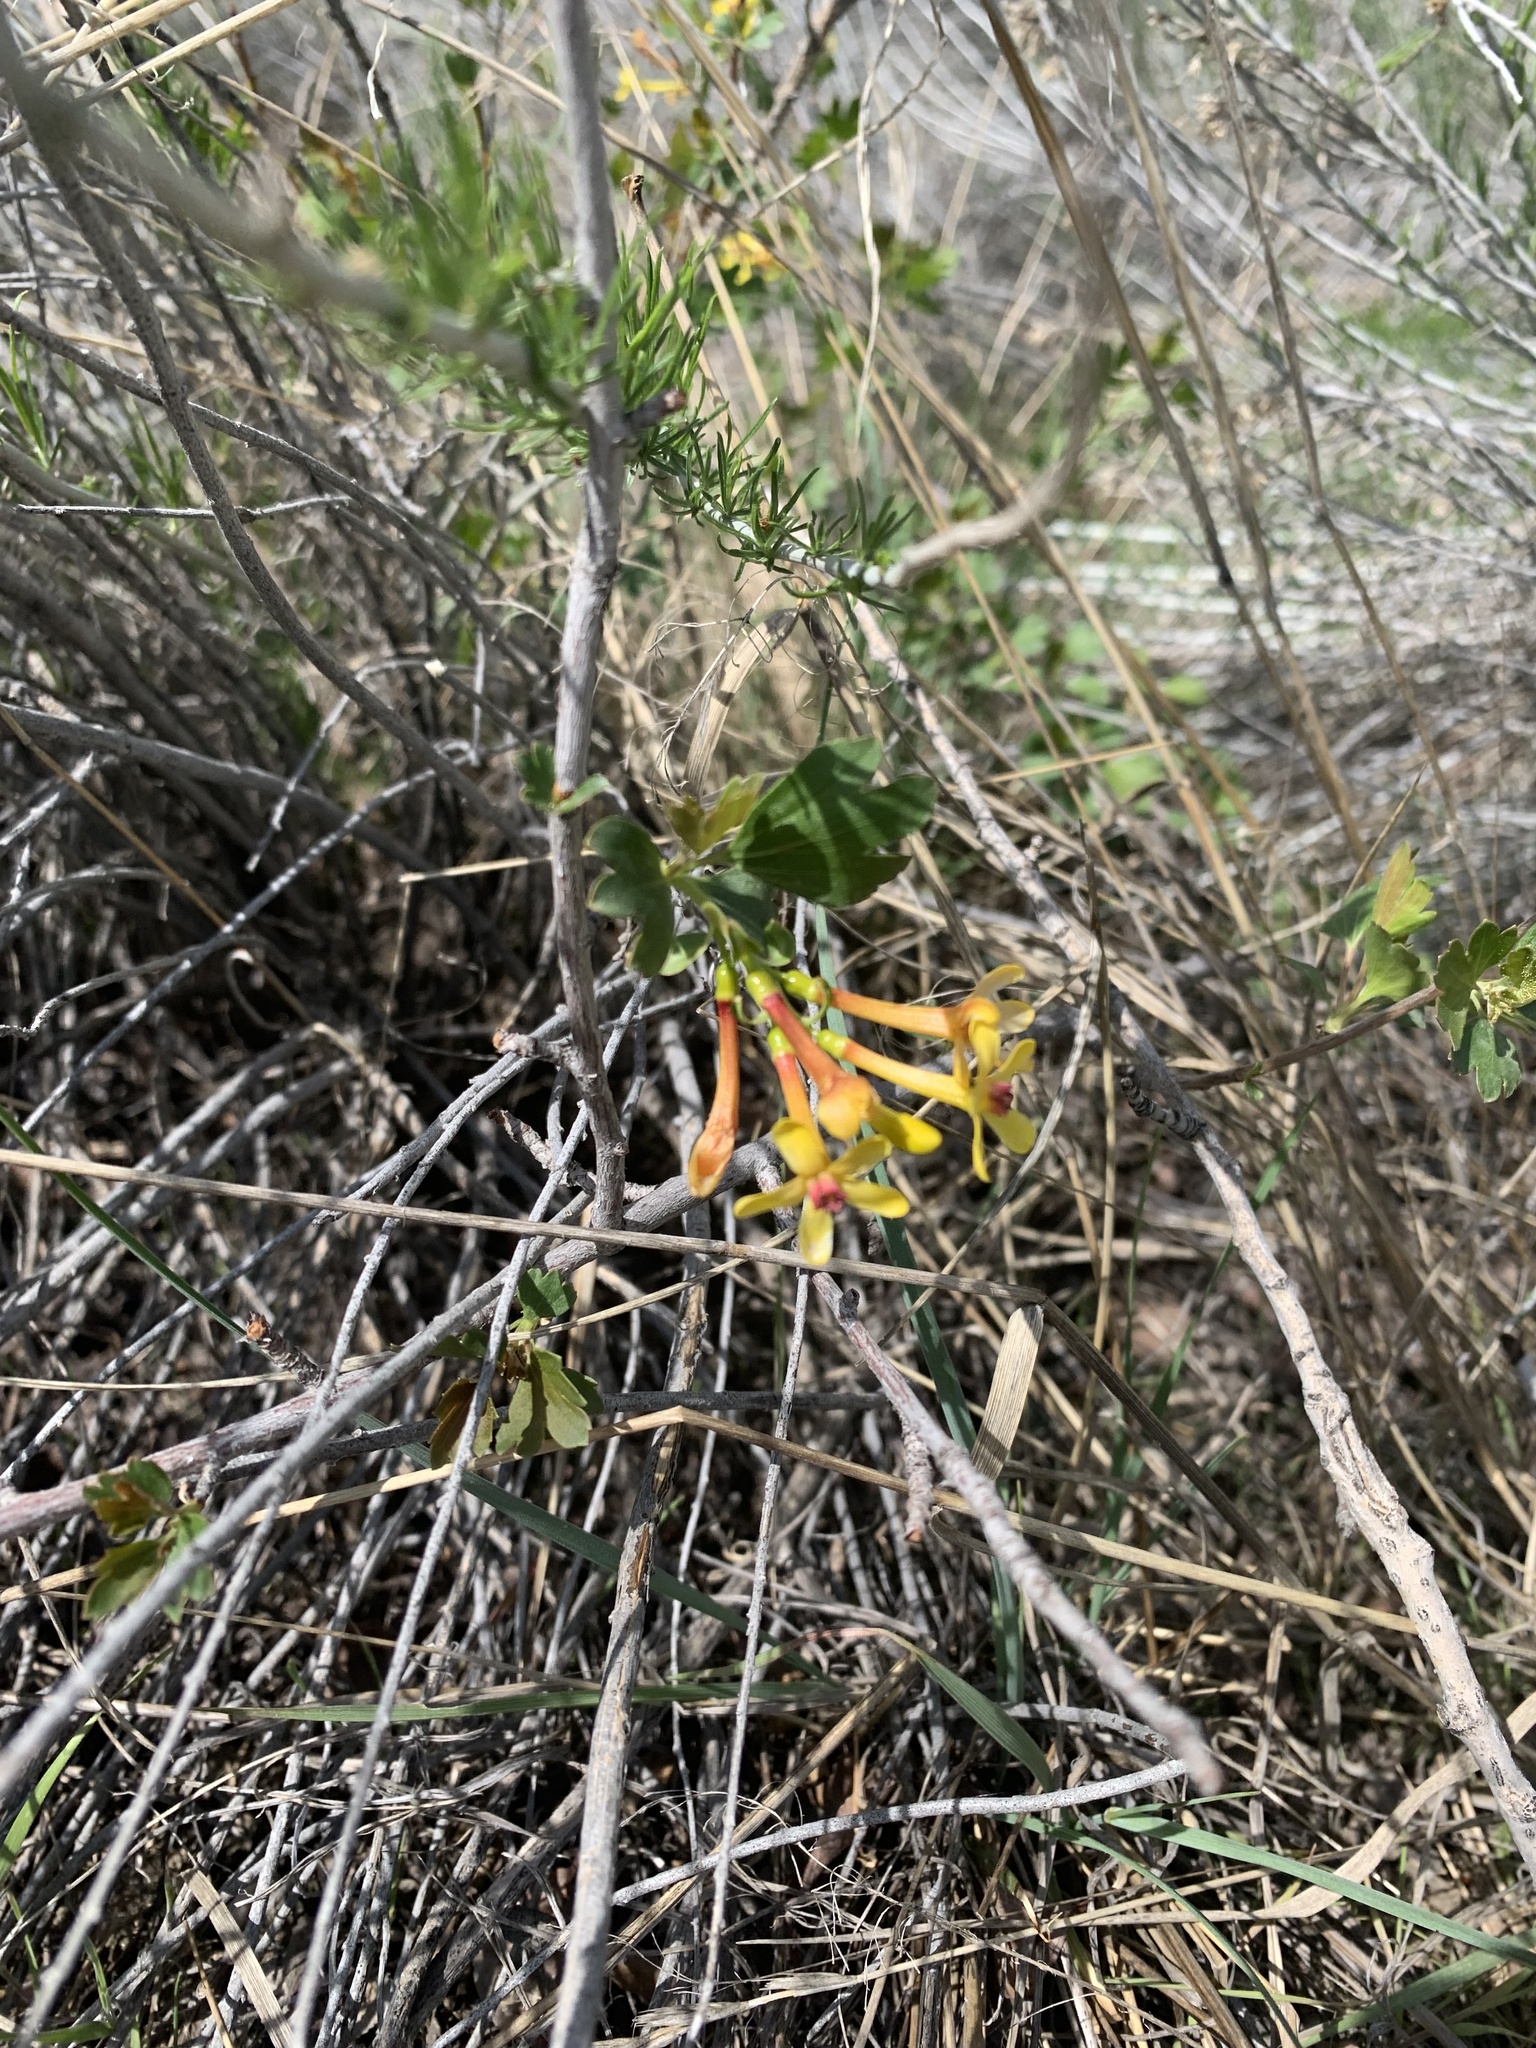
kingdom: Plantae
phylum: Tracheophyta
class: Magnoliopsida
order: Saxifragales
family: Grossulariaceae
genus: Ribes
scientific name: Ribes aureum
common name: Golden currant
